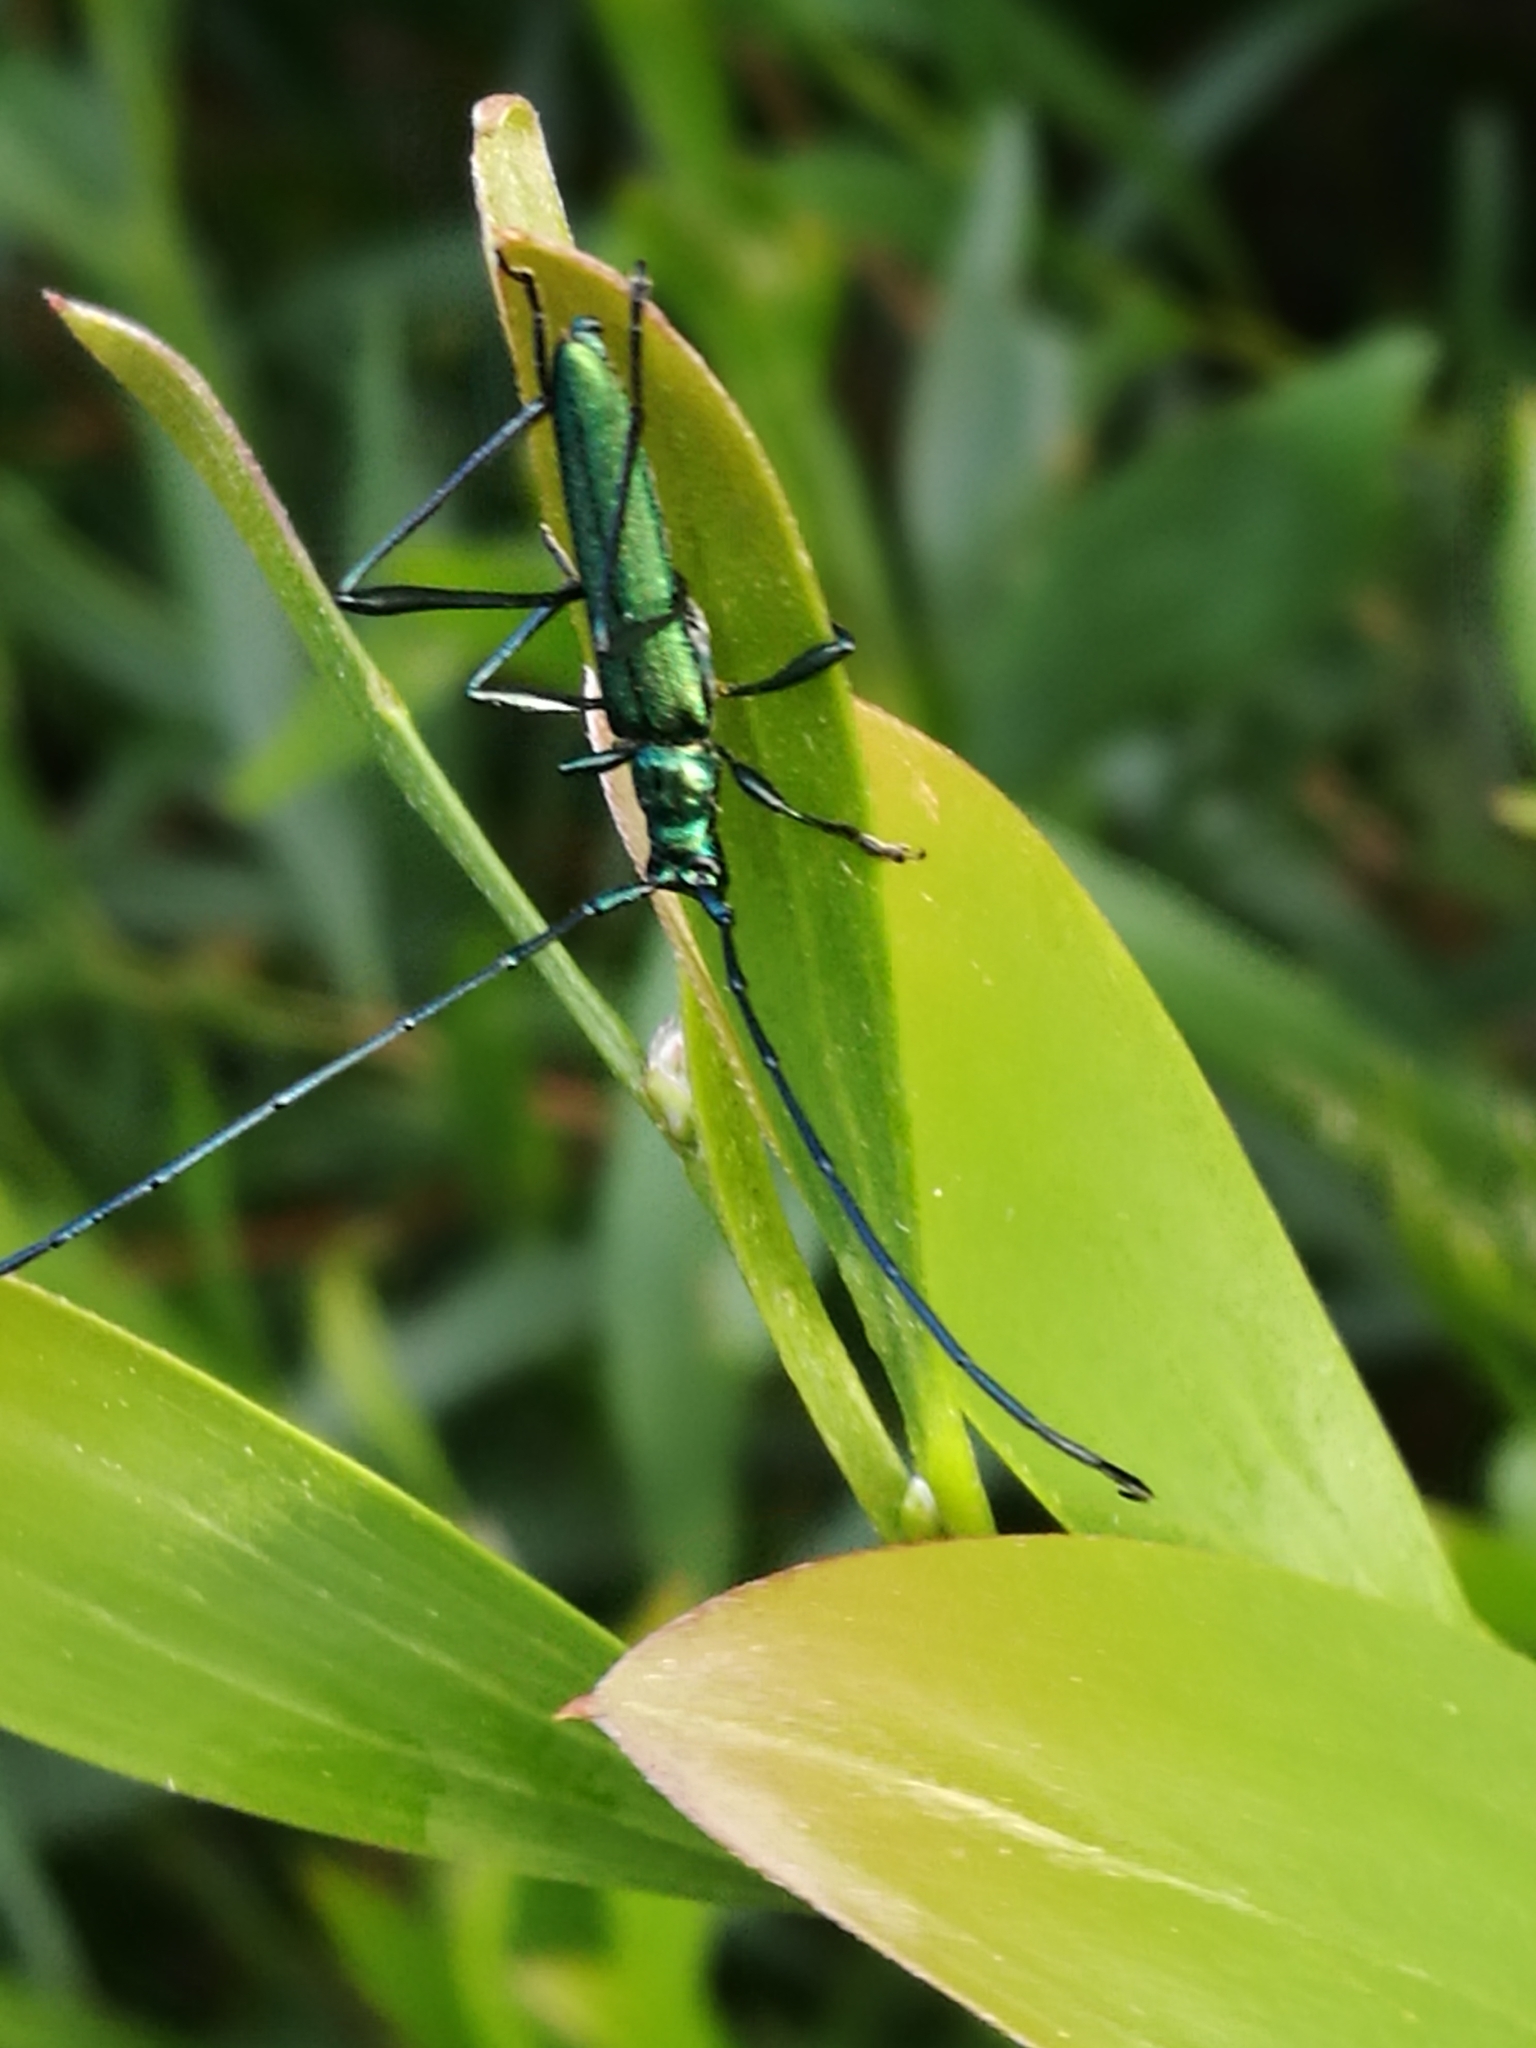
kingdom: Animalia
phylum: Arthropoda
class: Insecta
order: Coleoptera
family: Cerambycidae
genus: Promeces
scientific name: Promeces longipes
